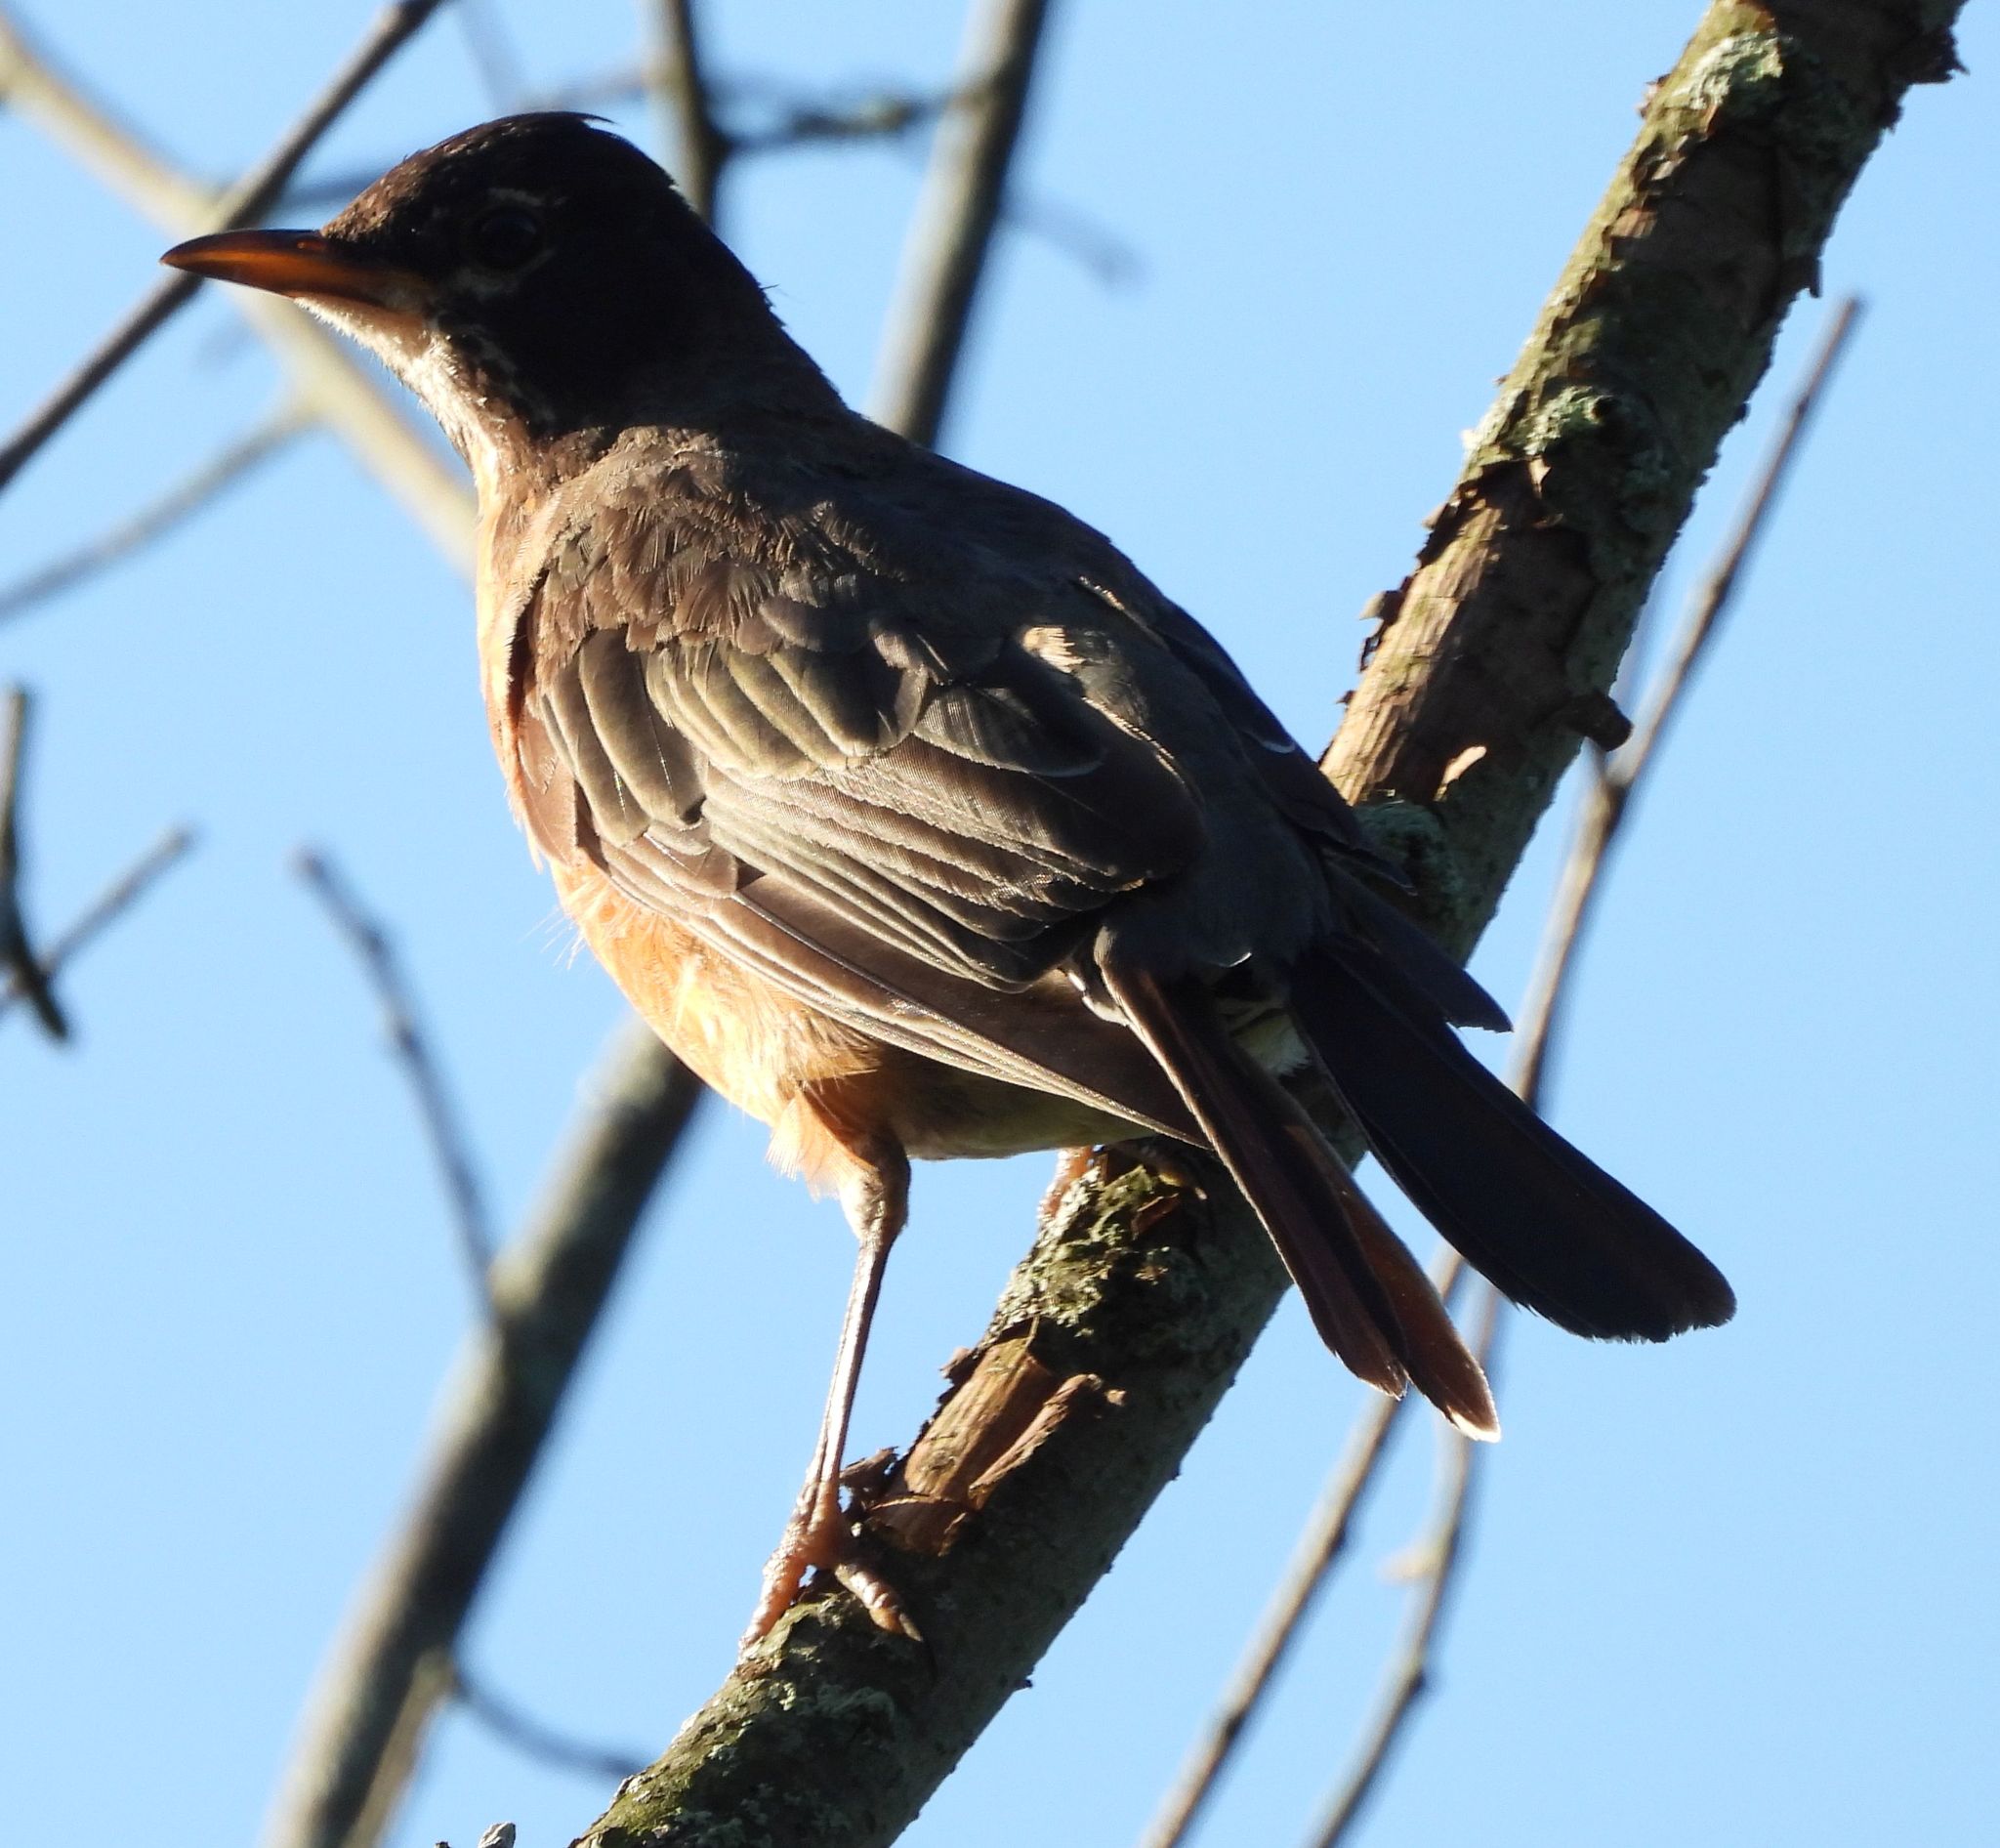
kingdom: Animalia
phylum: Chordata
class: Aves
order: Passeriformes
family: Turdidae
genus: Turdus
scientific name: Turdus migratorius
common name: American robin
